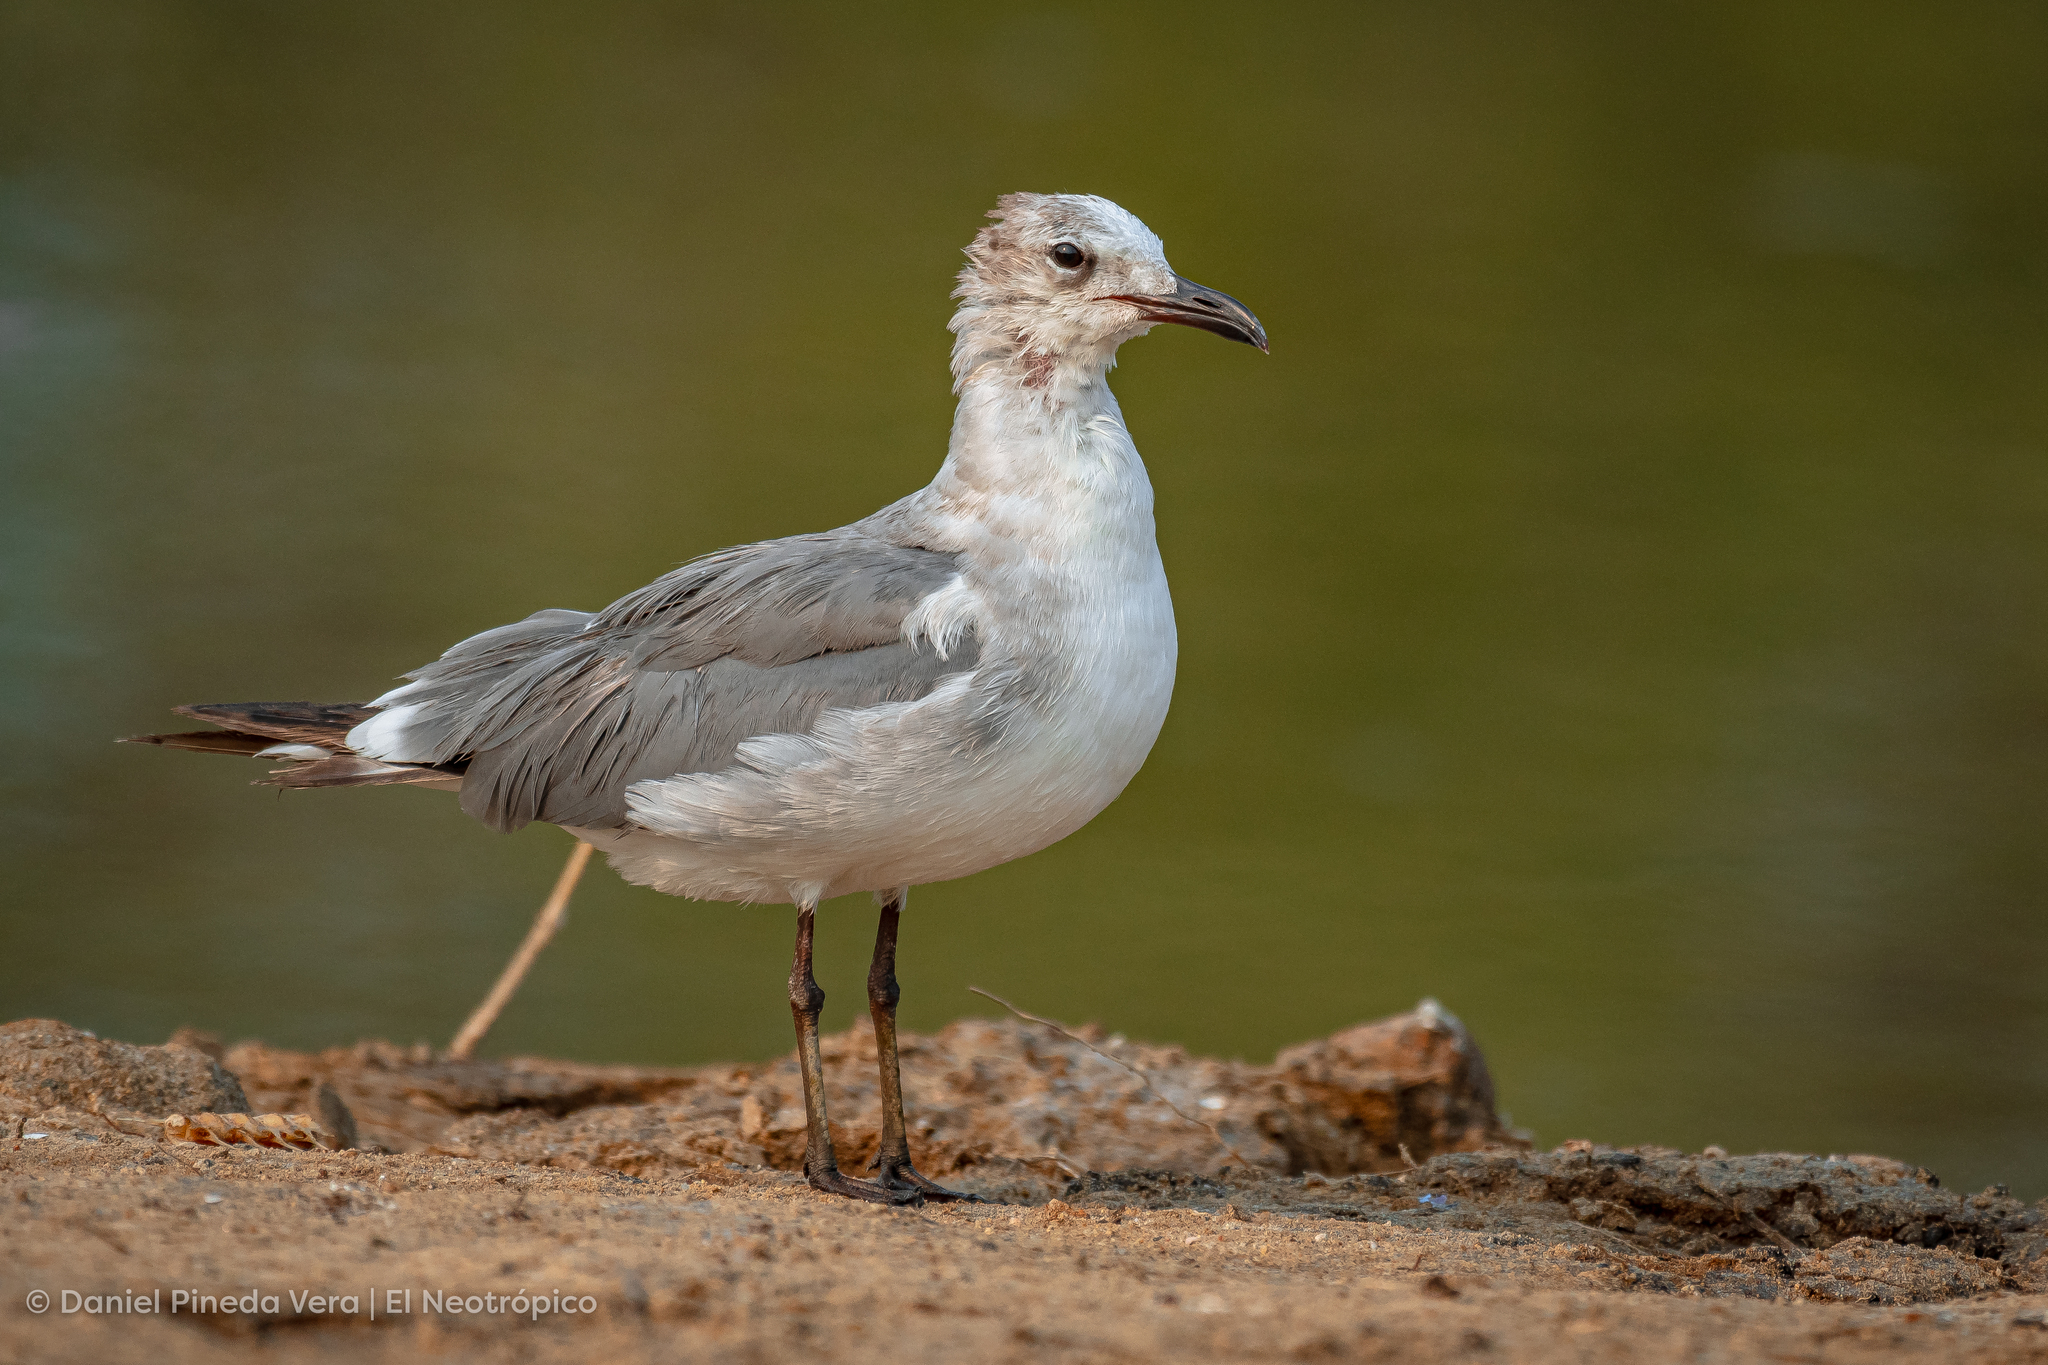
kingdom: Animalia
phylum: Chordata
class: Aves
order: Charadriiformes
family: Laridae
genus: Leucophaeus
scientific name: Leucophaeus atricilla
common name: Laughing gull
